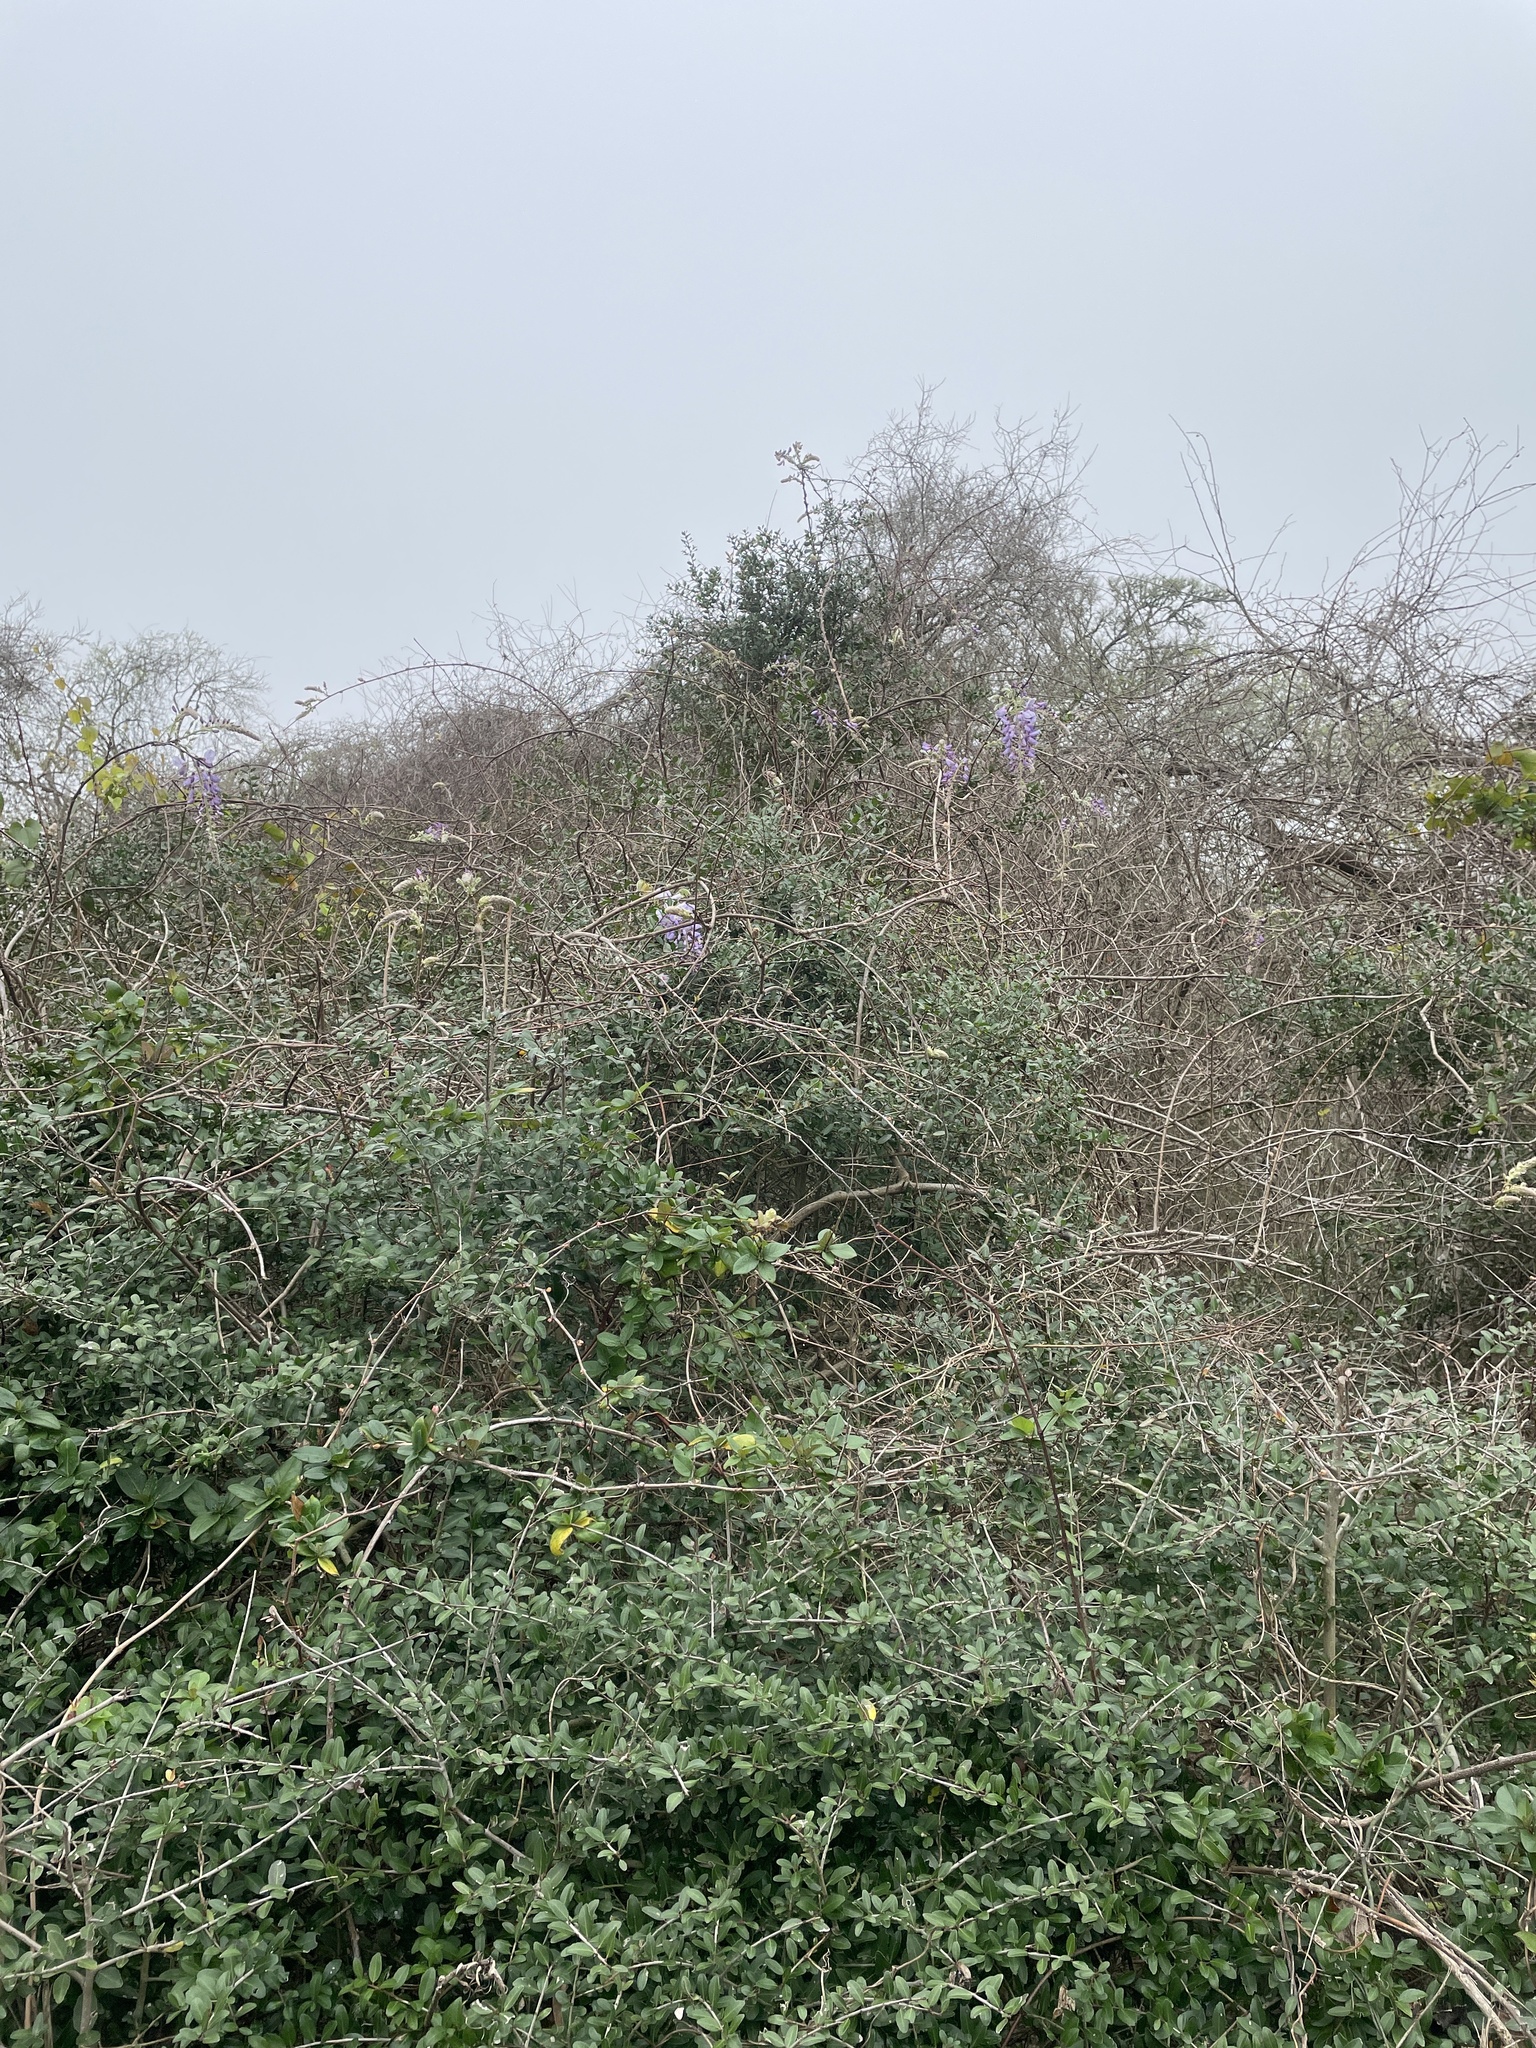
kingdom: Plantae
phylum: Tracheophyta
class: Magnoliopsida
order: Fabales
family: Fabaceae
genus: Wisteria
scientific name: Wisteria sinensis
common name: Chinese wisteria
